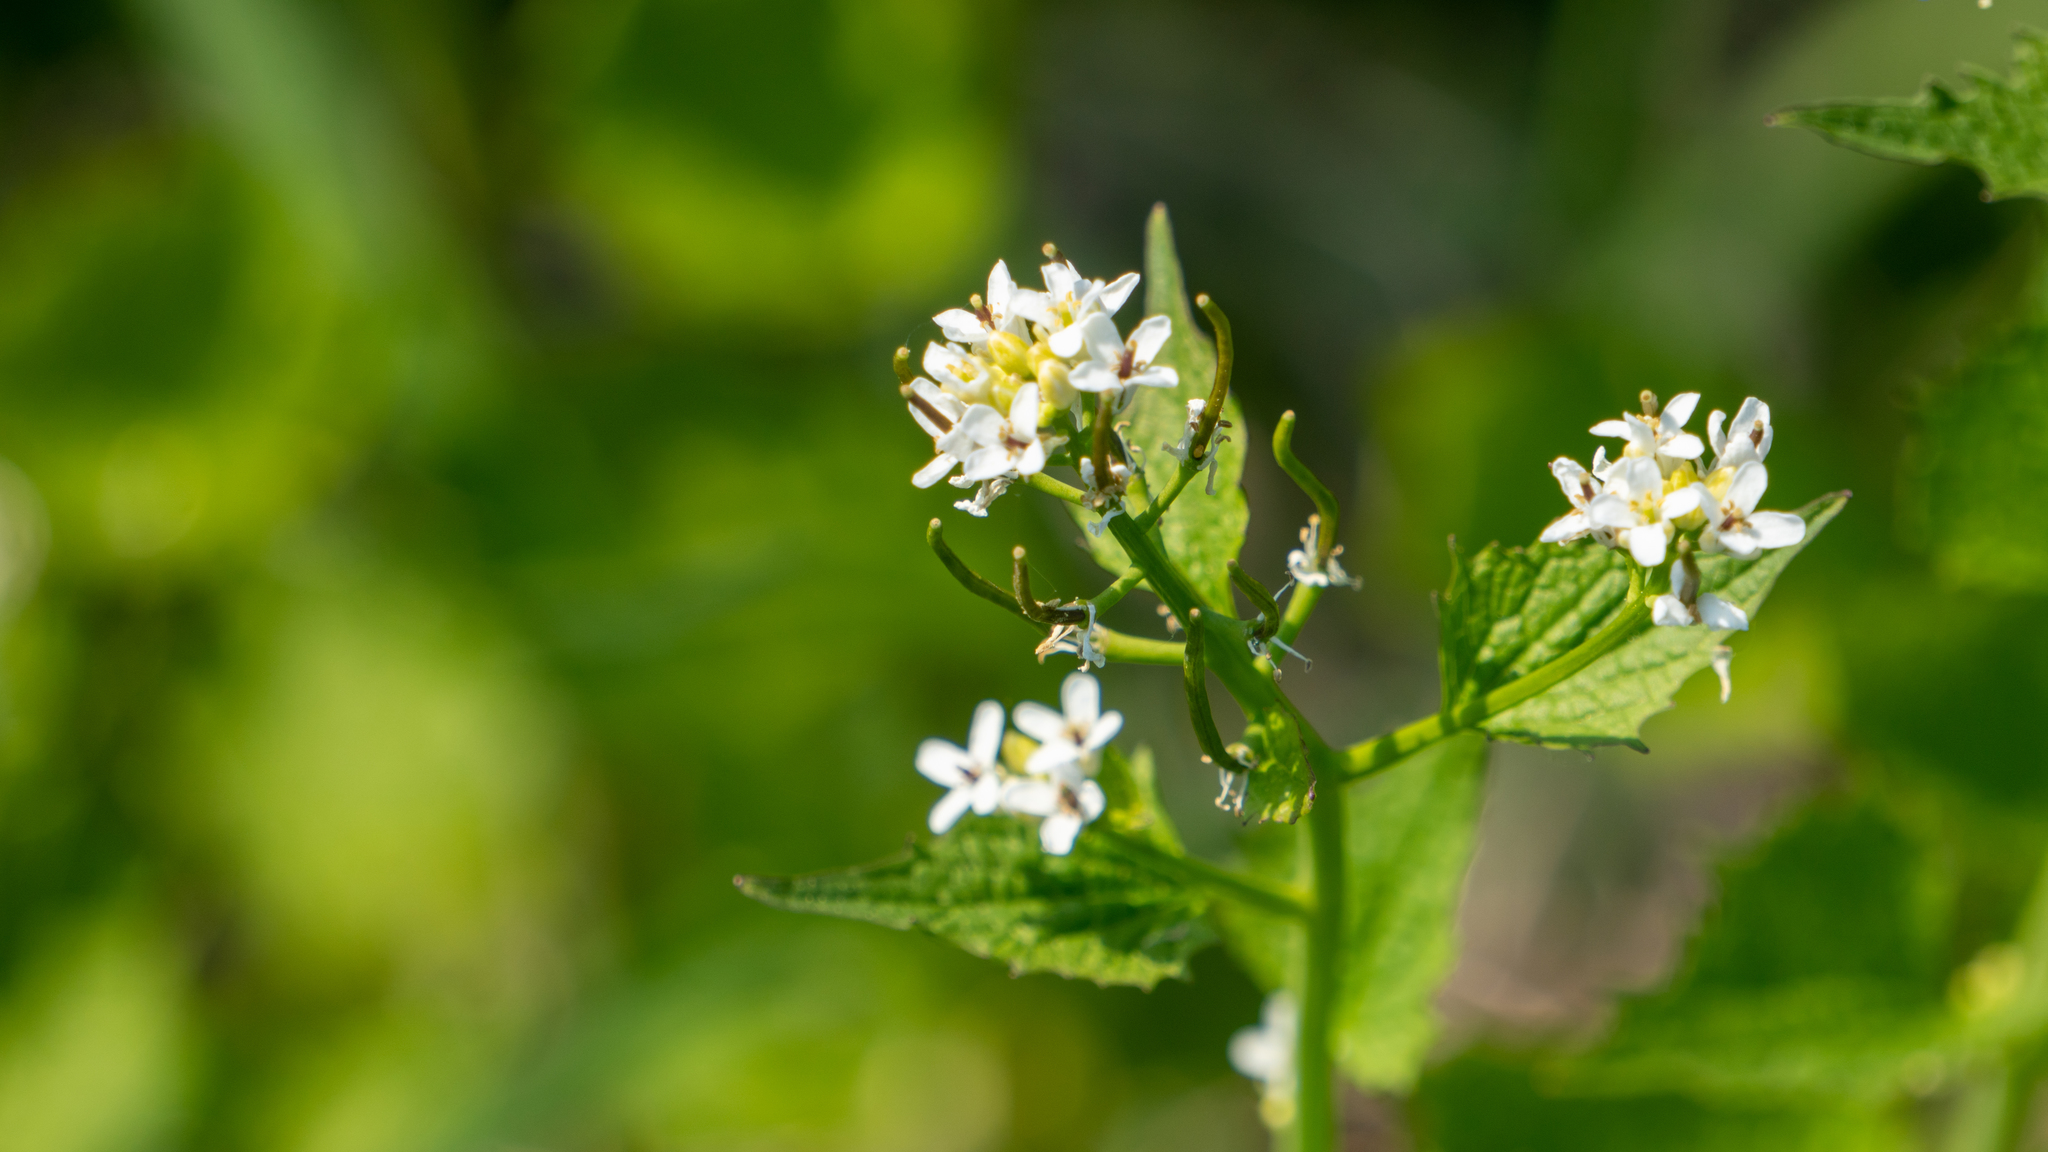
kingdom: Plantae
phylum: Tracheophyta
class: Magnoliopsida
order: Brassicales
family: Brassicaceae
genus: Alliaria
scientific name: Alliaria petiolata
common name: Garlic mustard
